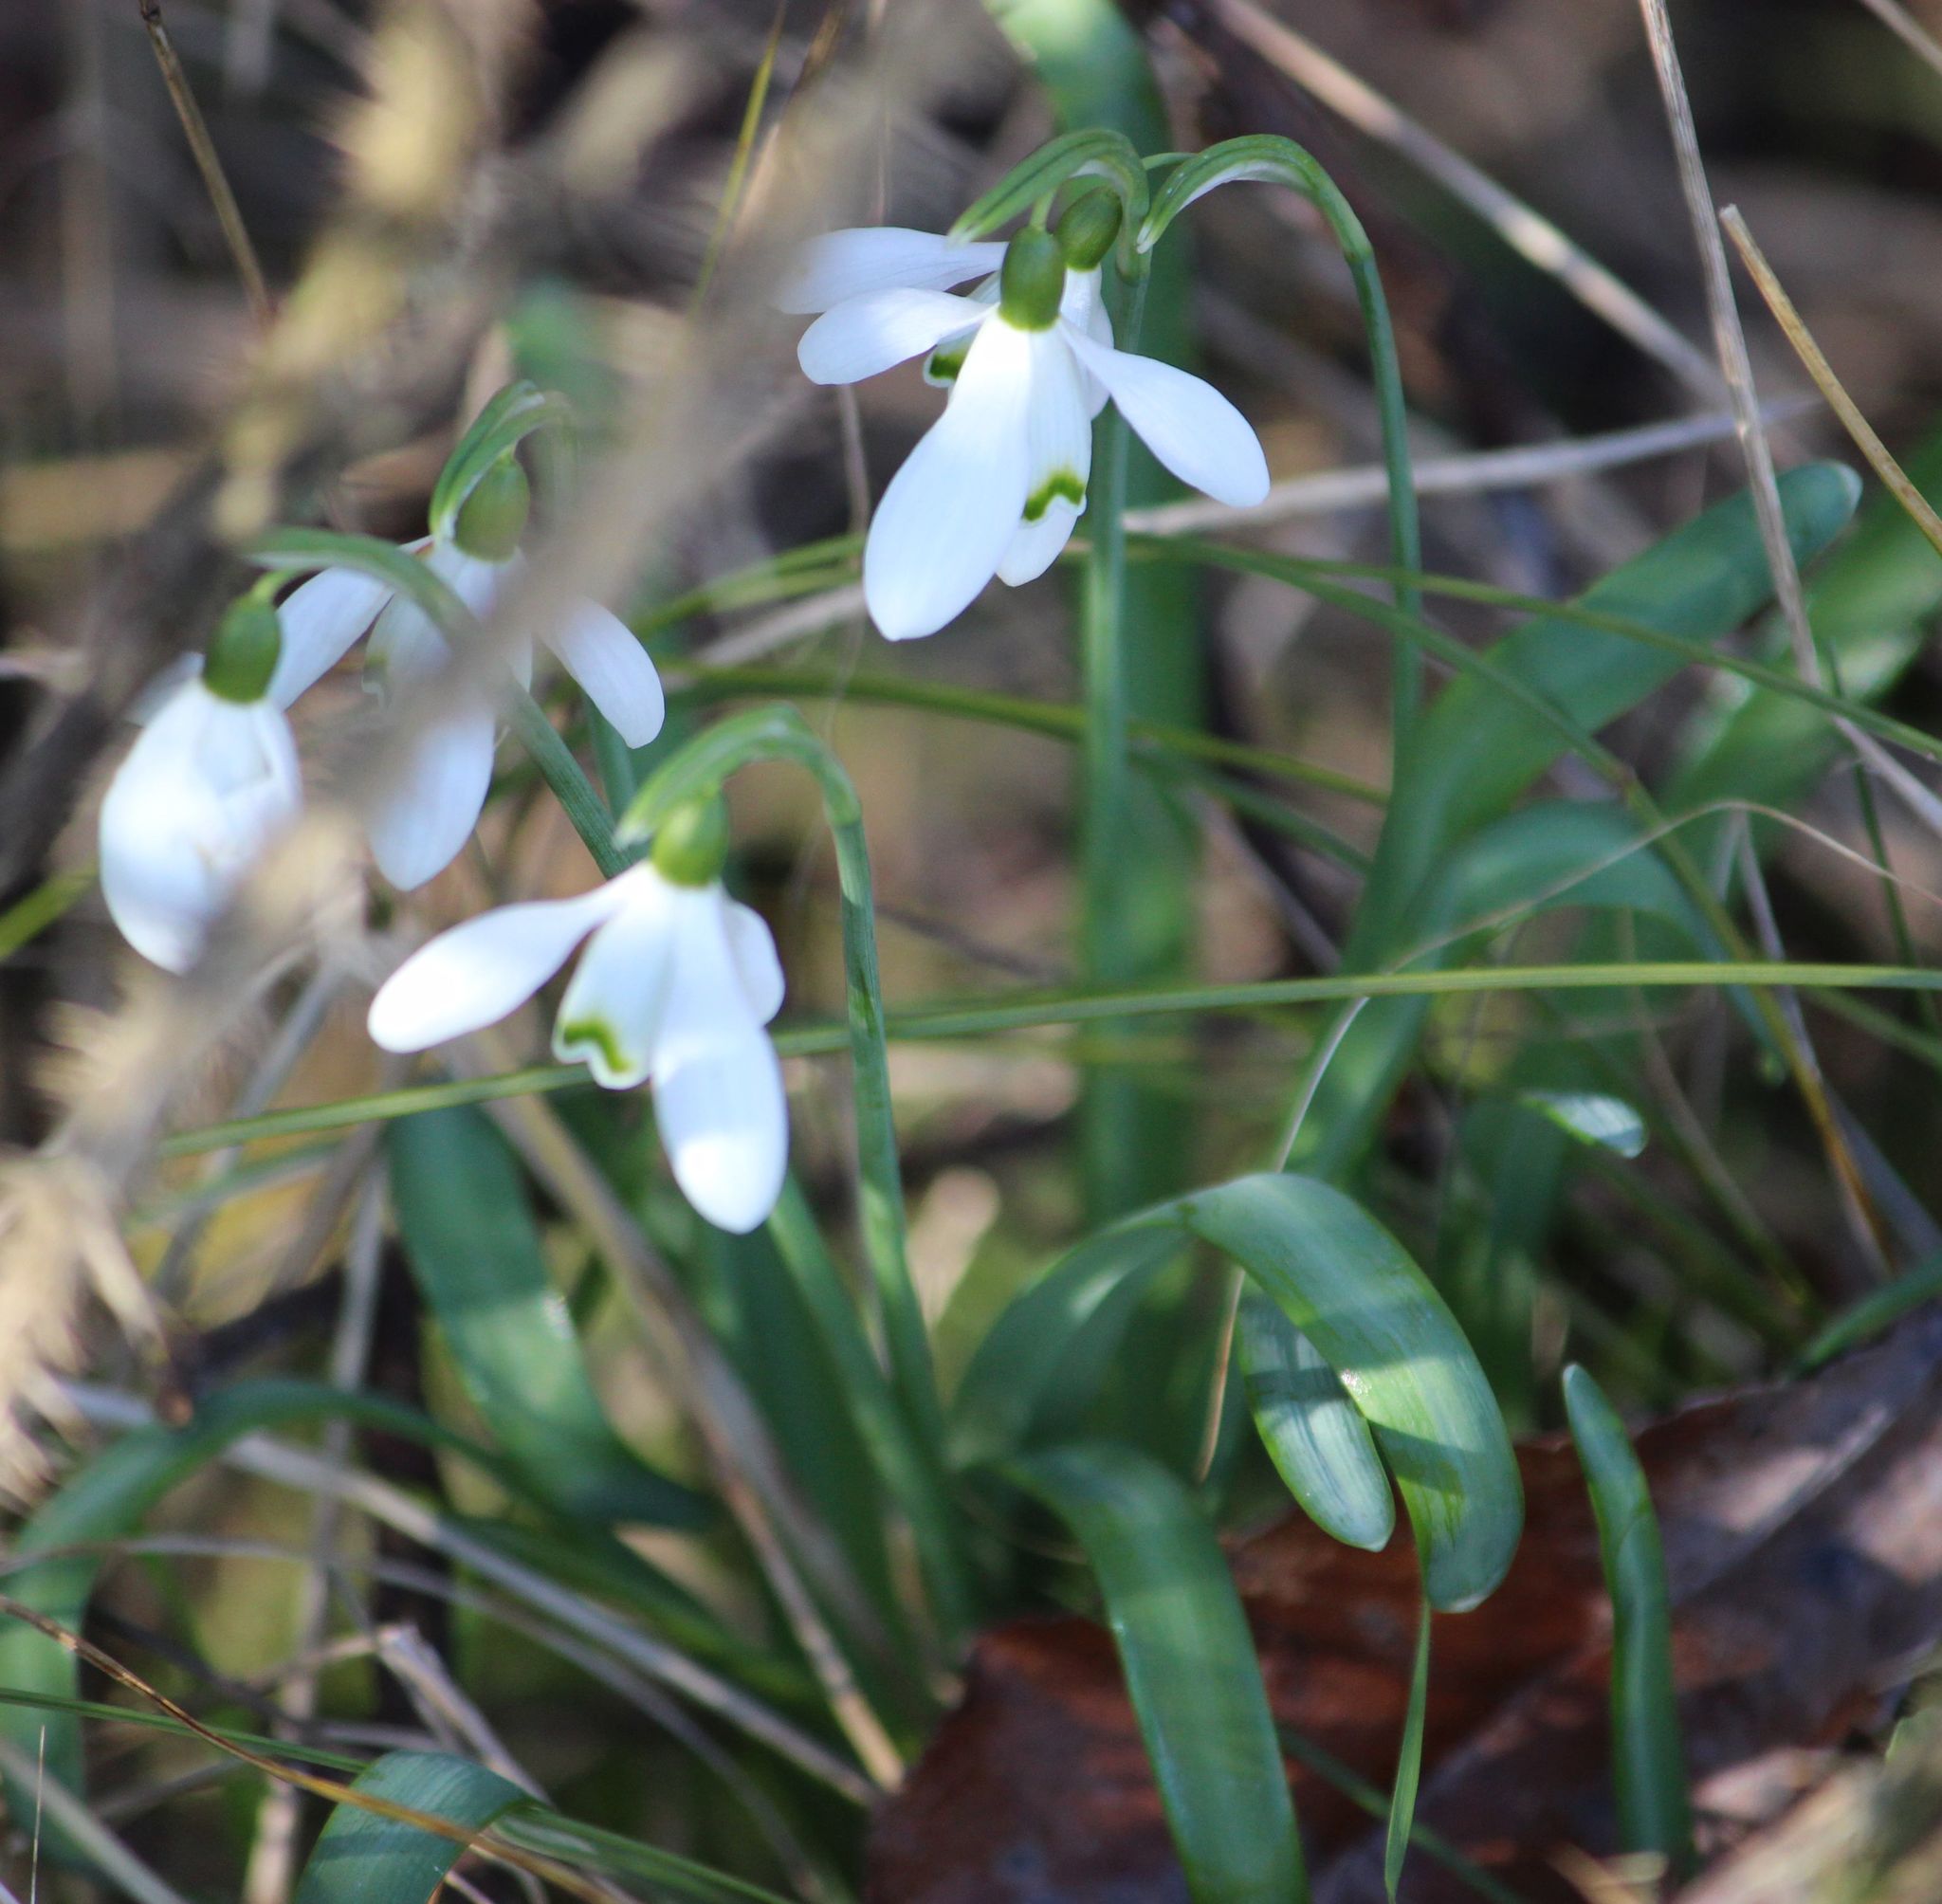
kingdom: Plantae
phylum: Tracheophyta
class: Liliopsida
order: Asparagales
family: Amaryllidaceae
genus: Galanthus
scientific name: Galanthus nivalis
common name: Snowdrop
